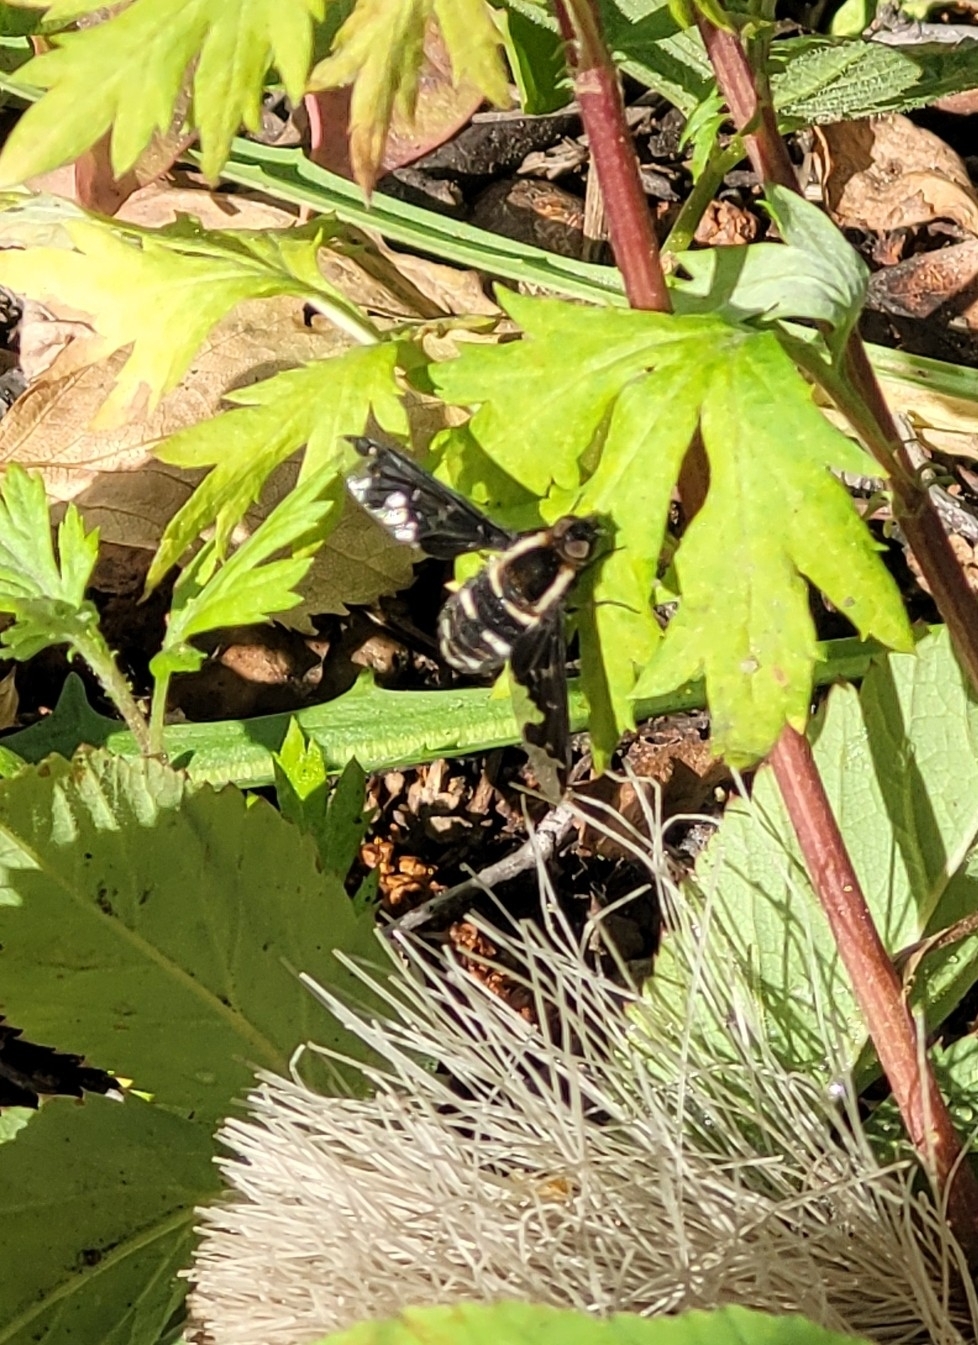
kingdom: Animalia
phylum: Arthropoda
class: Insecta
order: Diptera
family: Bombyliidae
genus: Hemipenthes
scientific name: Hemipenthes maura
